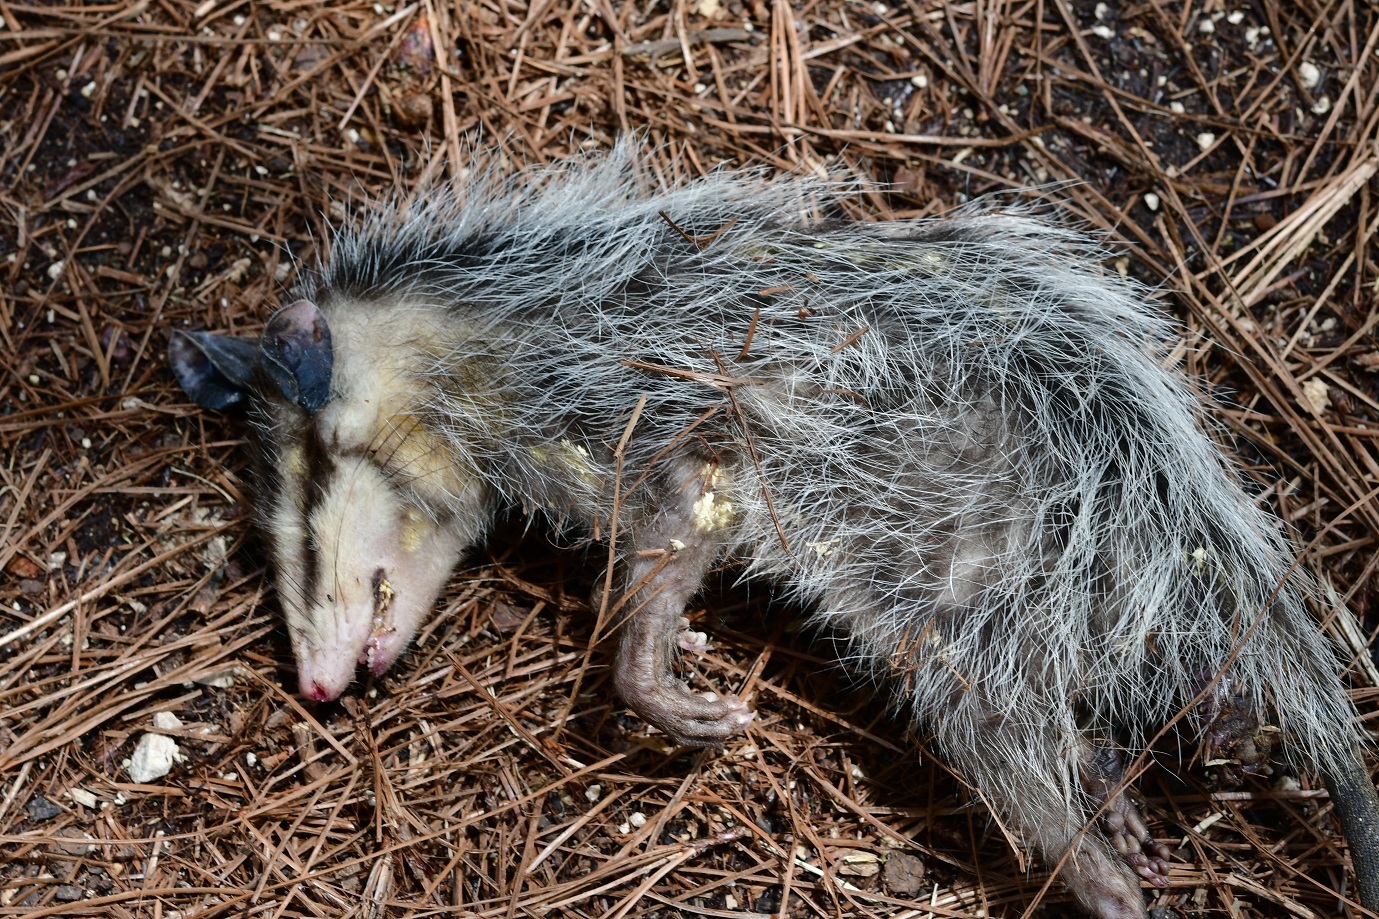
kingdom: Animalia
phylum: Chordata
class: Mammalia
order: Didelphimorphia
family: Didelphidae
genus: Didelphis
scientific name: Didelphis virginiana
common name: Virginia opossum
